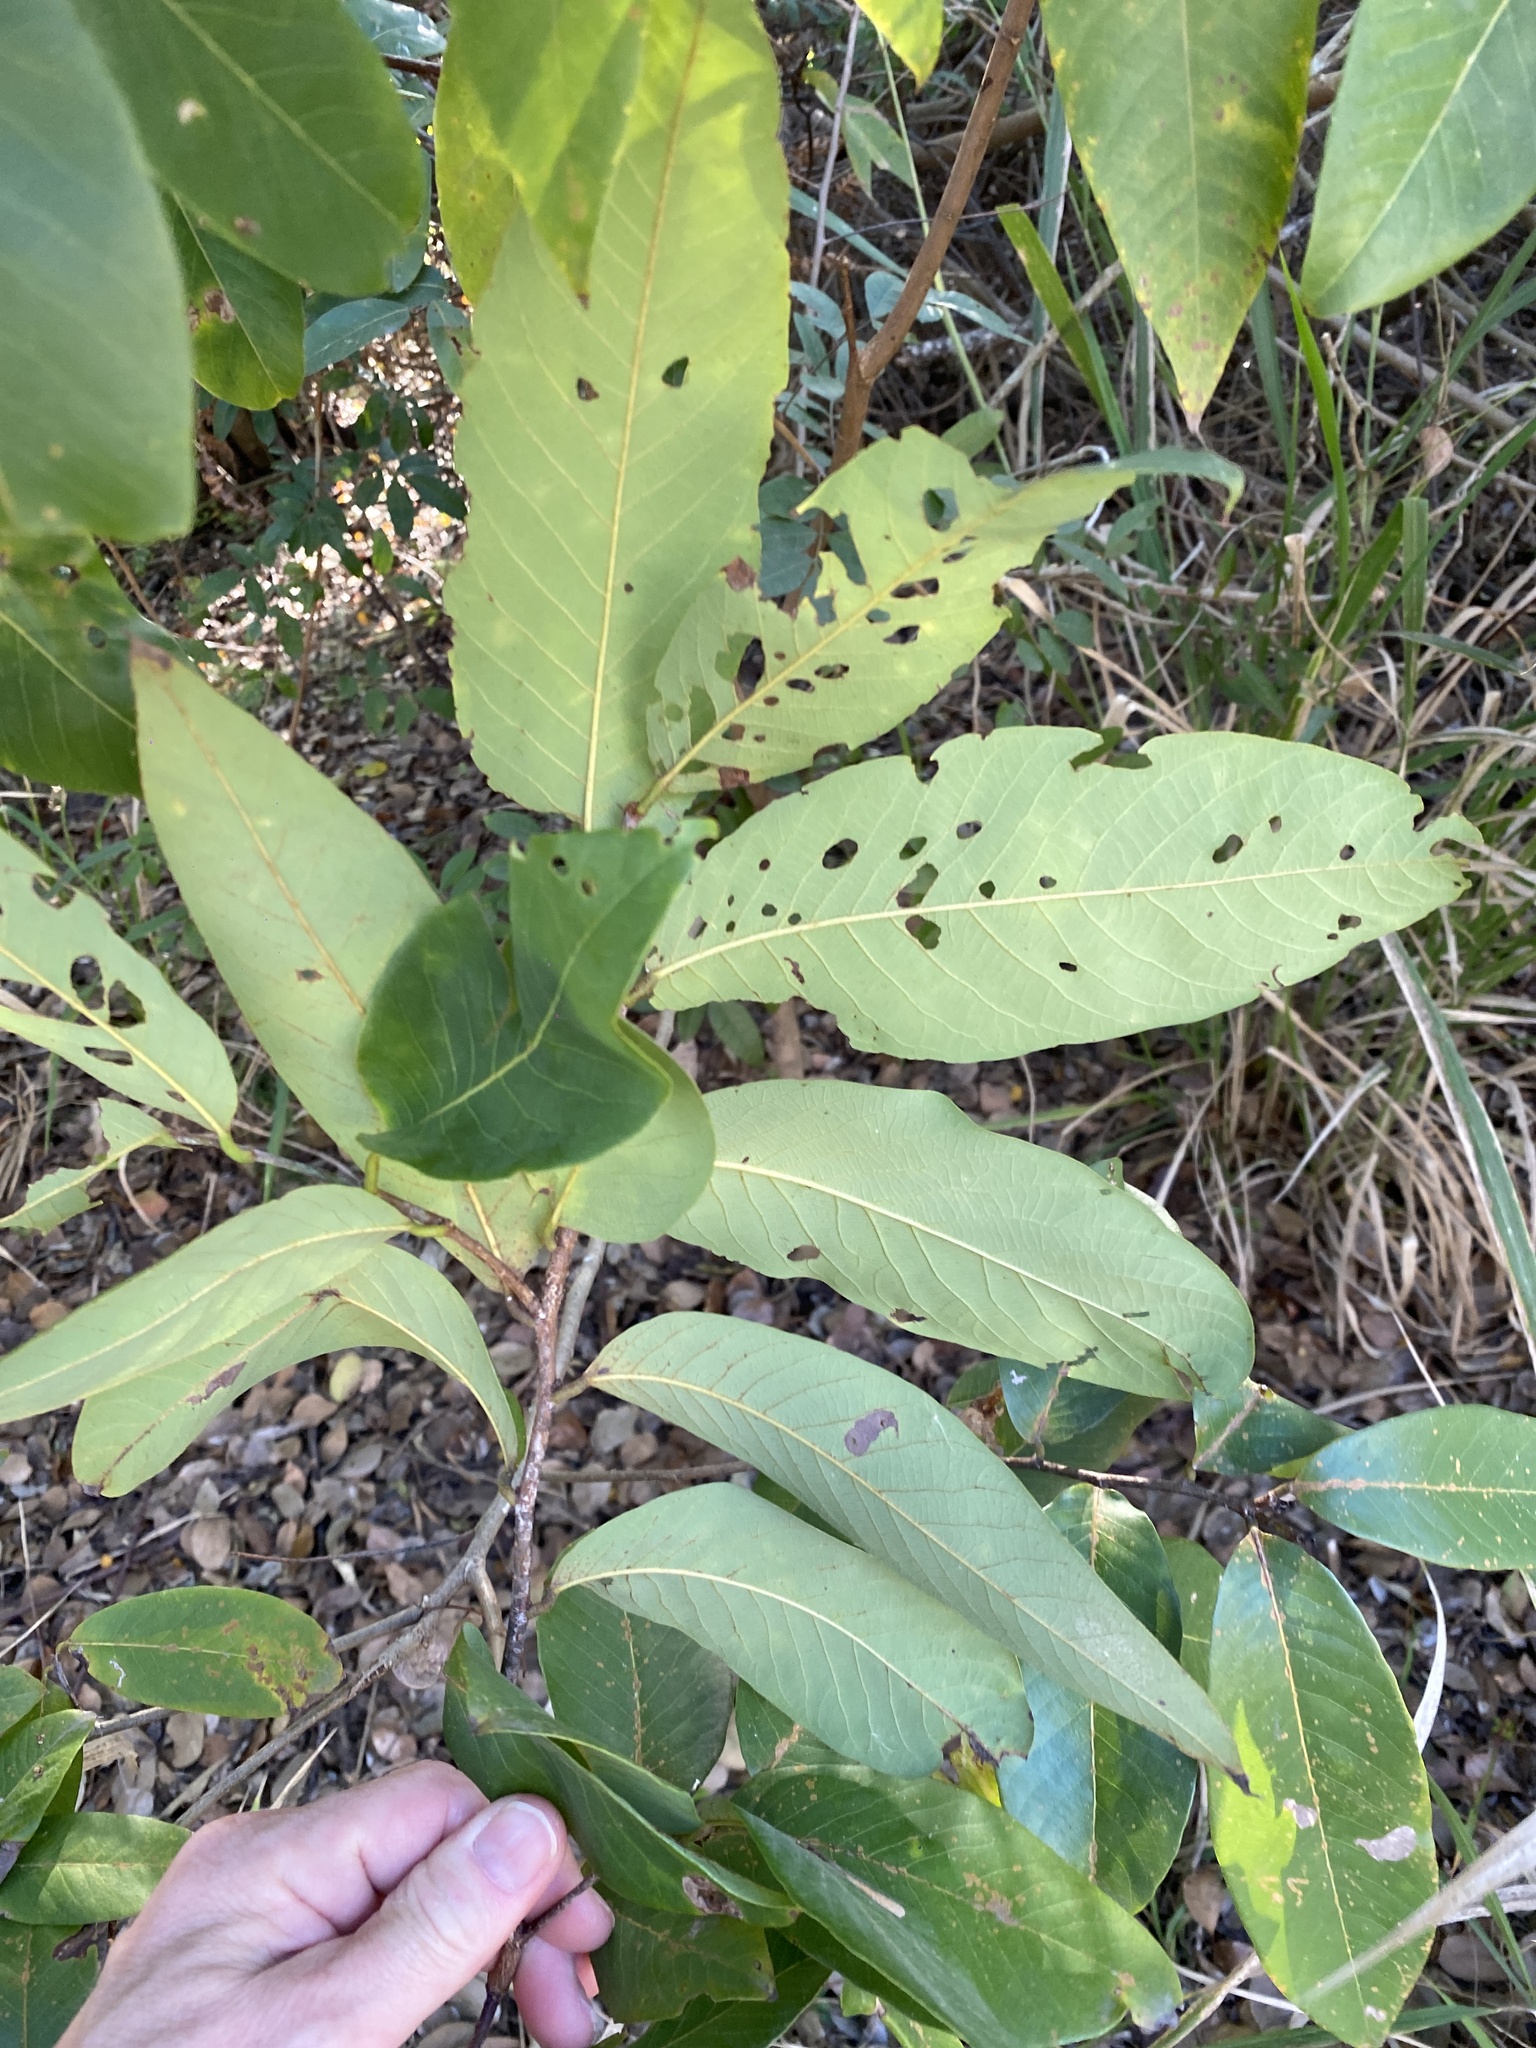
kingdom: Plantae
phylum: Tracheophyta
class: Magnoliopsida
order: Malpighiales
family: Phyllanthaceae
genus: Bridelia
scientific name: Bridelia exaltata
